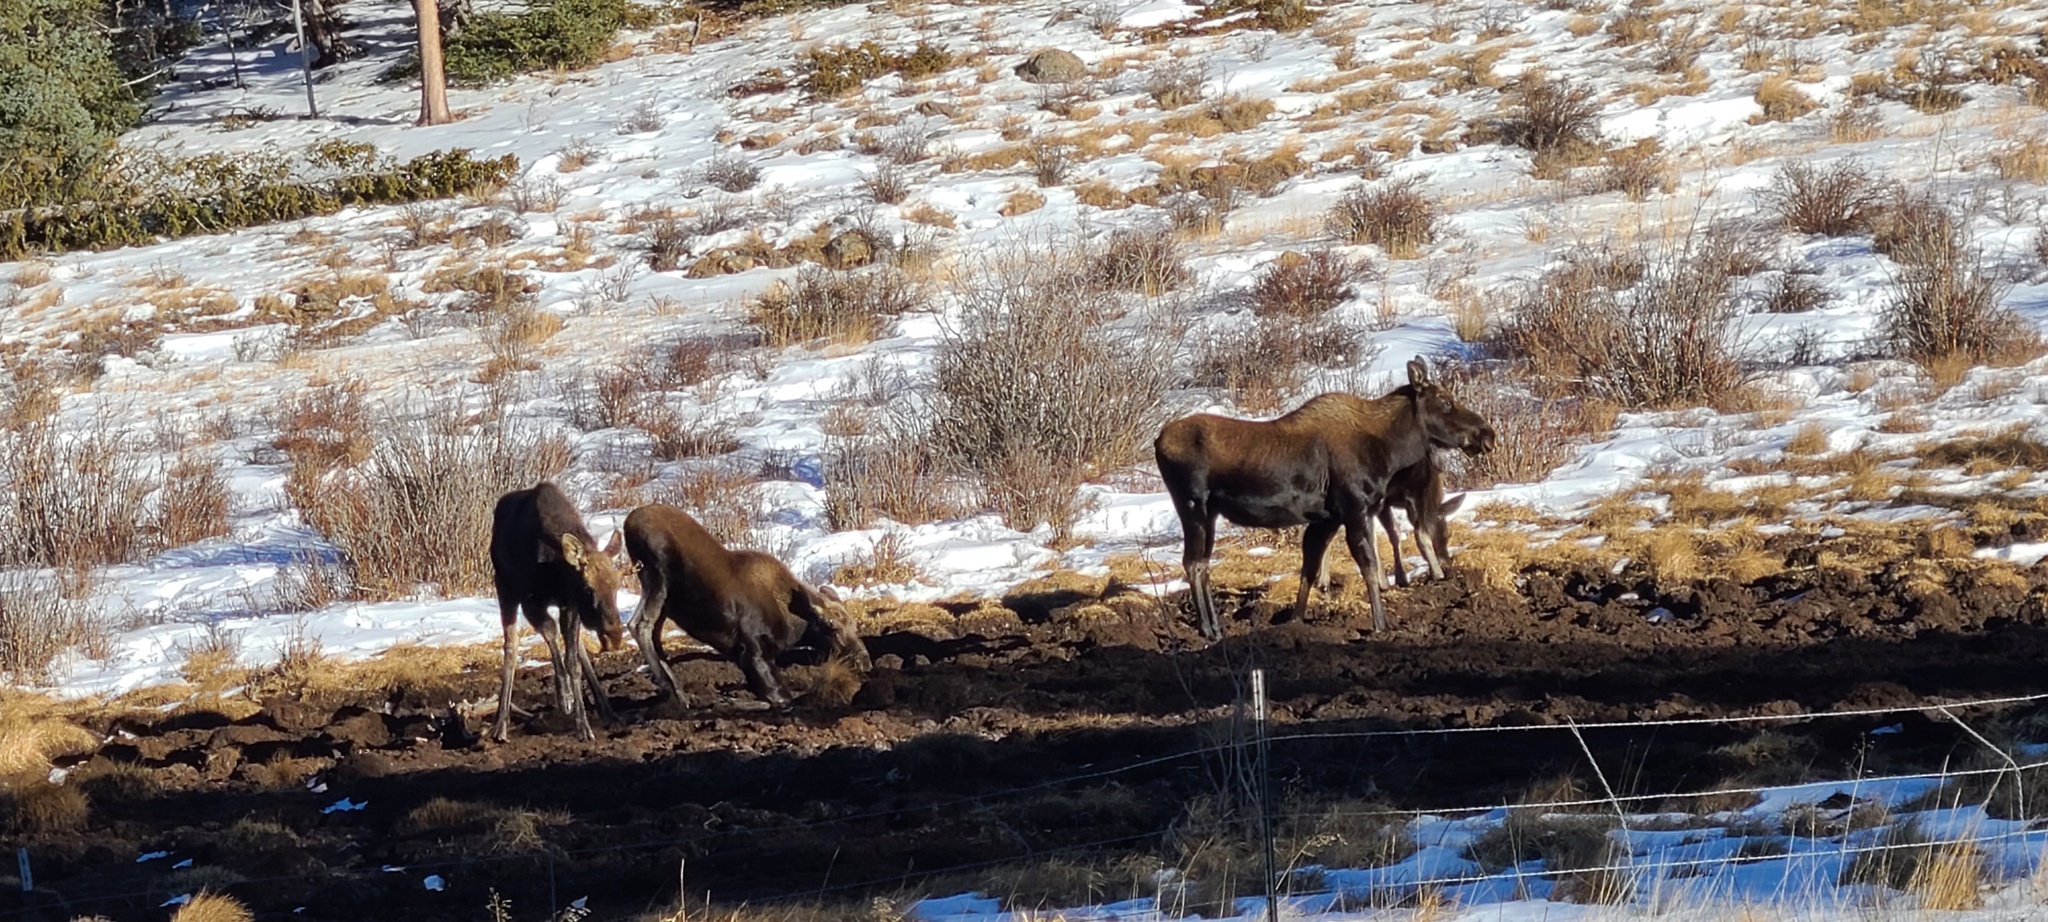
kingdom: Animalia
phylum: Chordata
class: Mammalia
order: Artiodactyla
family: Cervidae
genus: Alces
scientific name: Alces alces
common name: Moose
